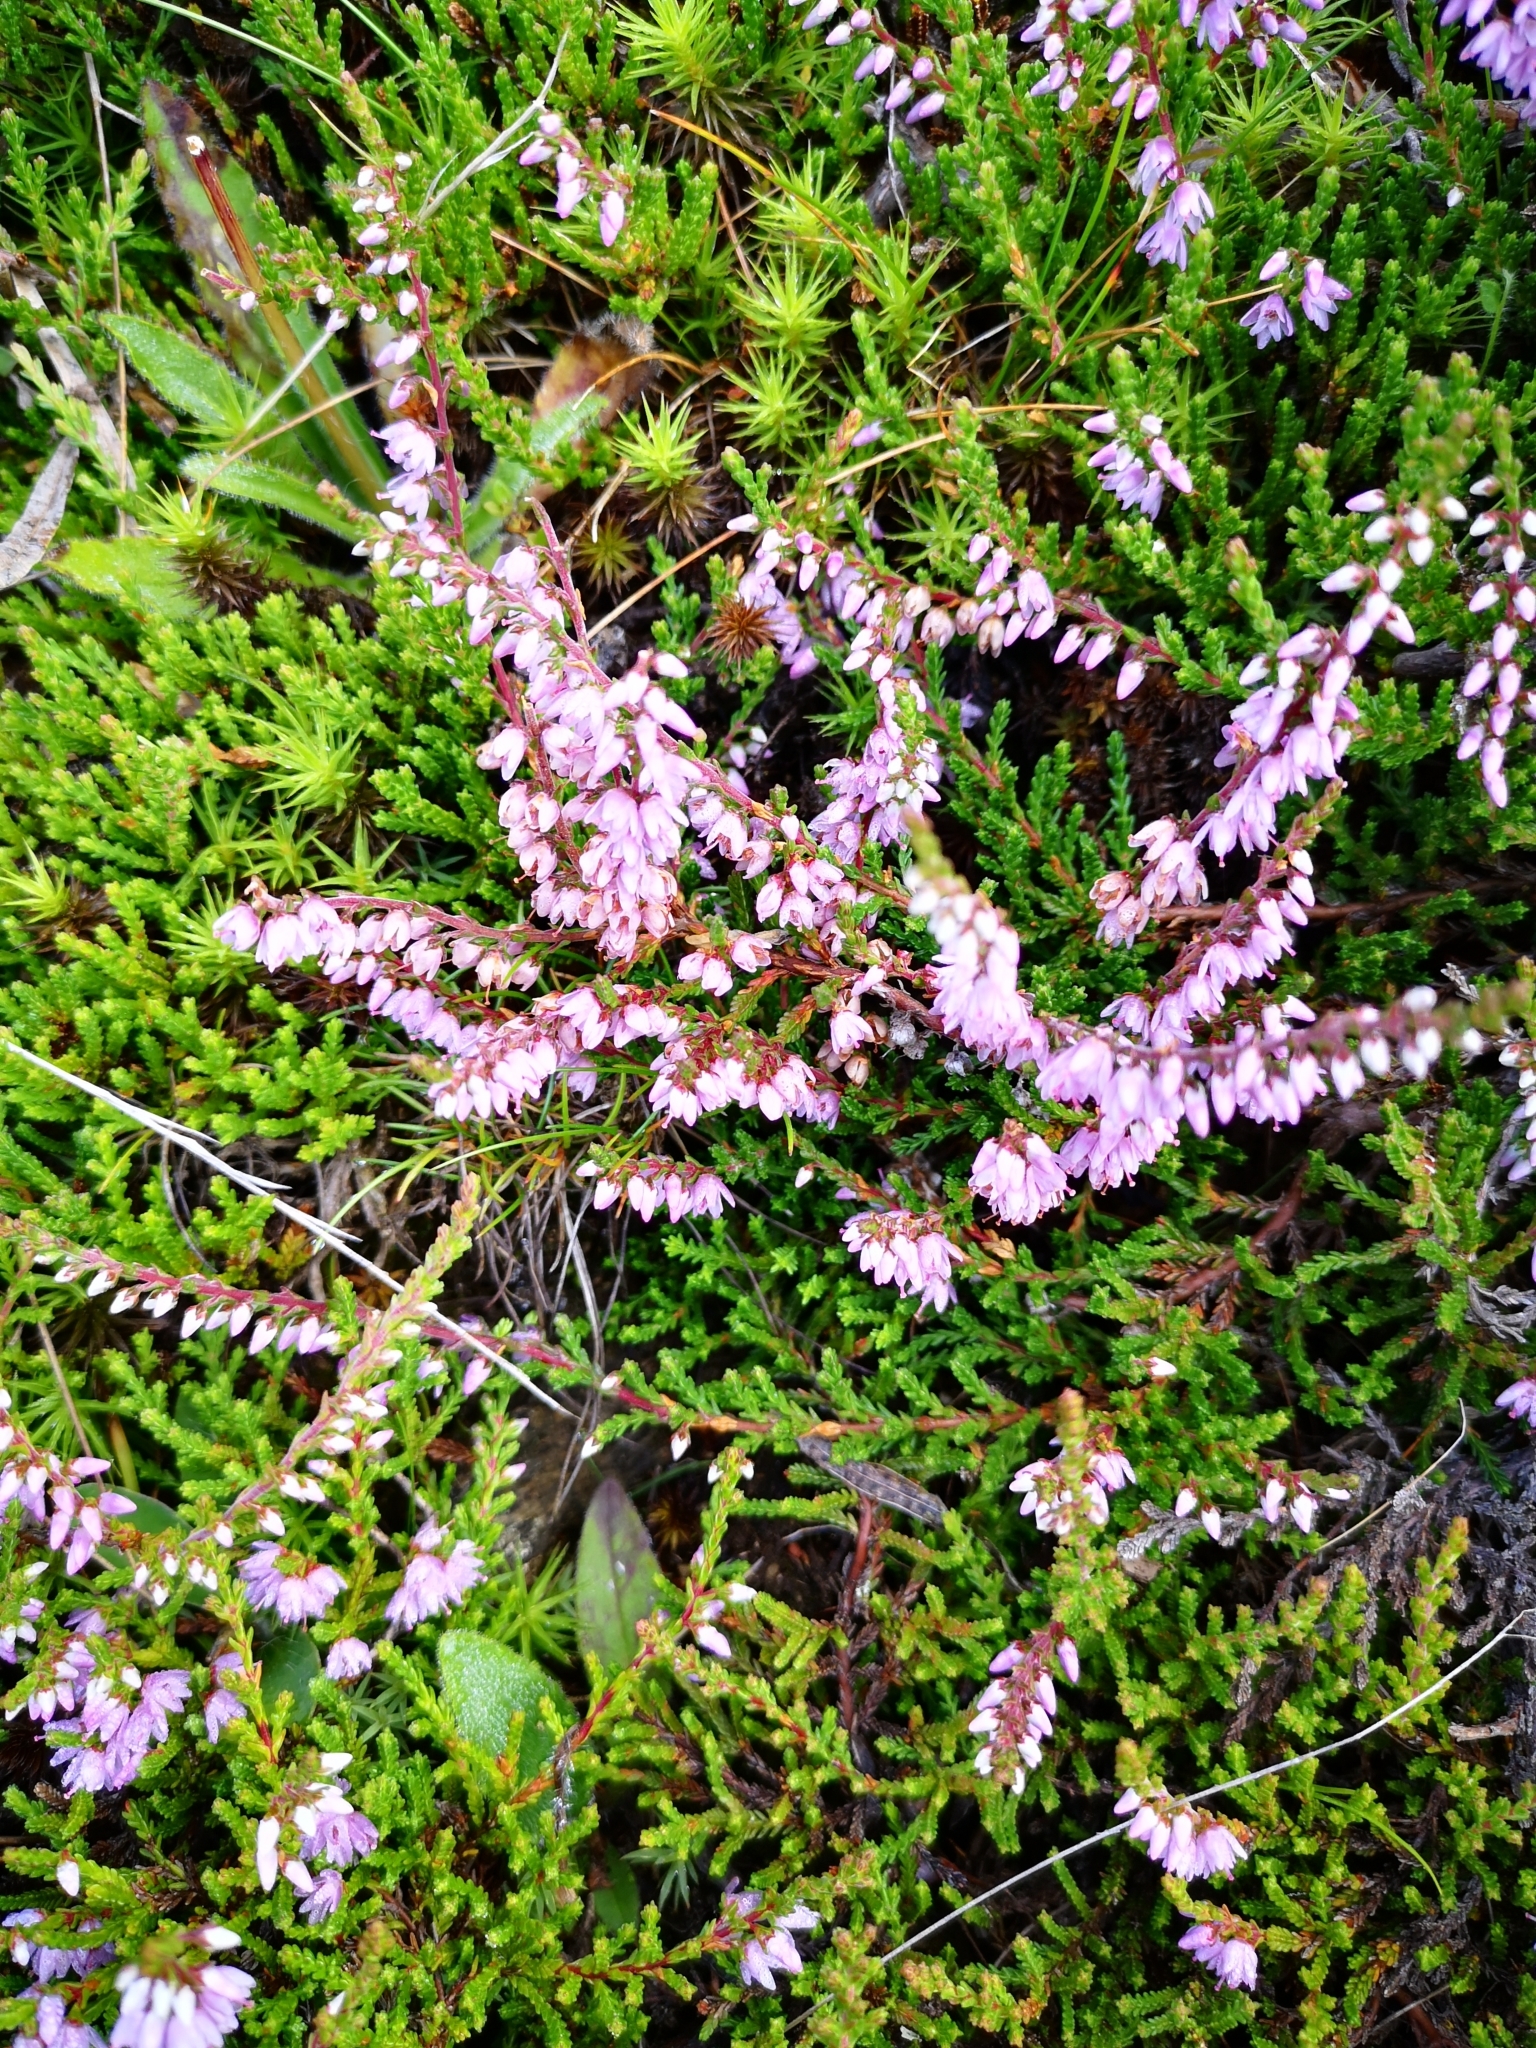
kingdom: Plantae
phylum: Tracheophyta
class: Magnoliopsida
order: Ericales
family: Ericaceae
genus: Calluna
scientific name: Calluna vulgaris
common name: Heather
